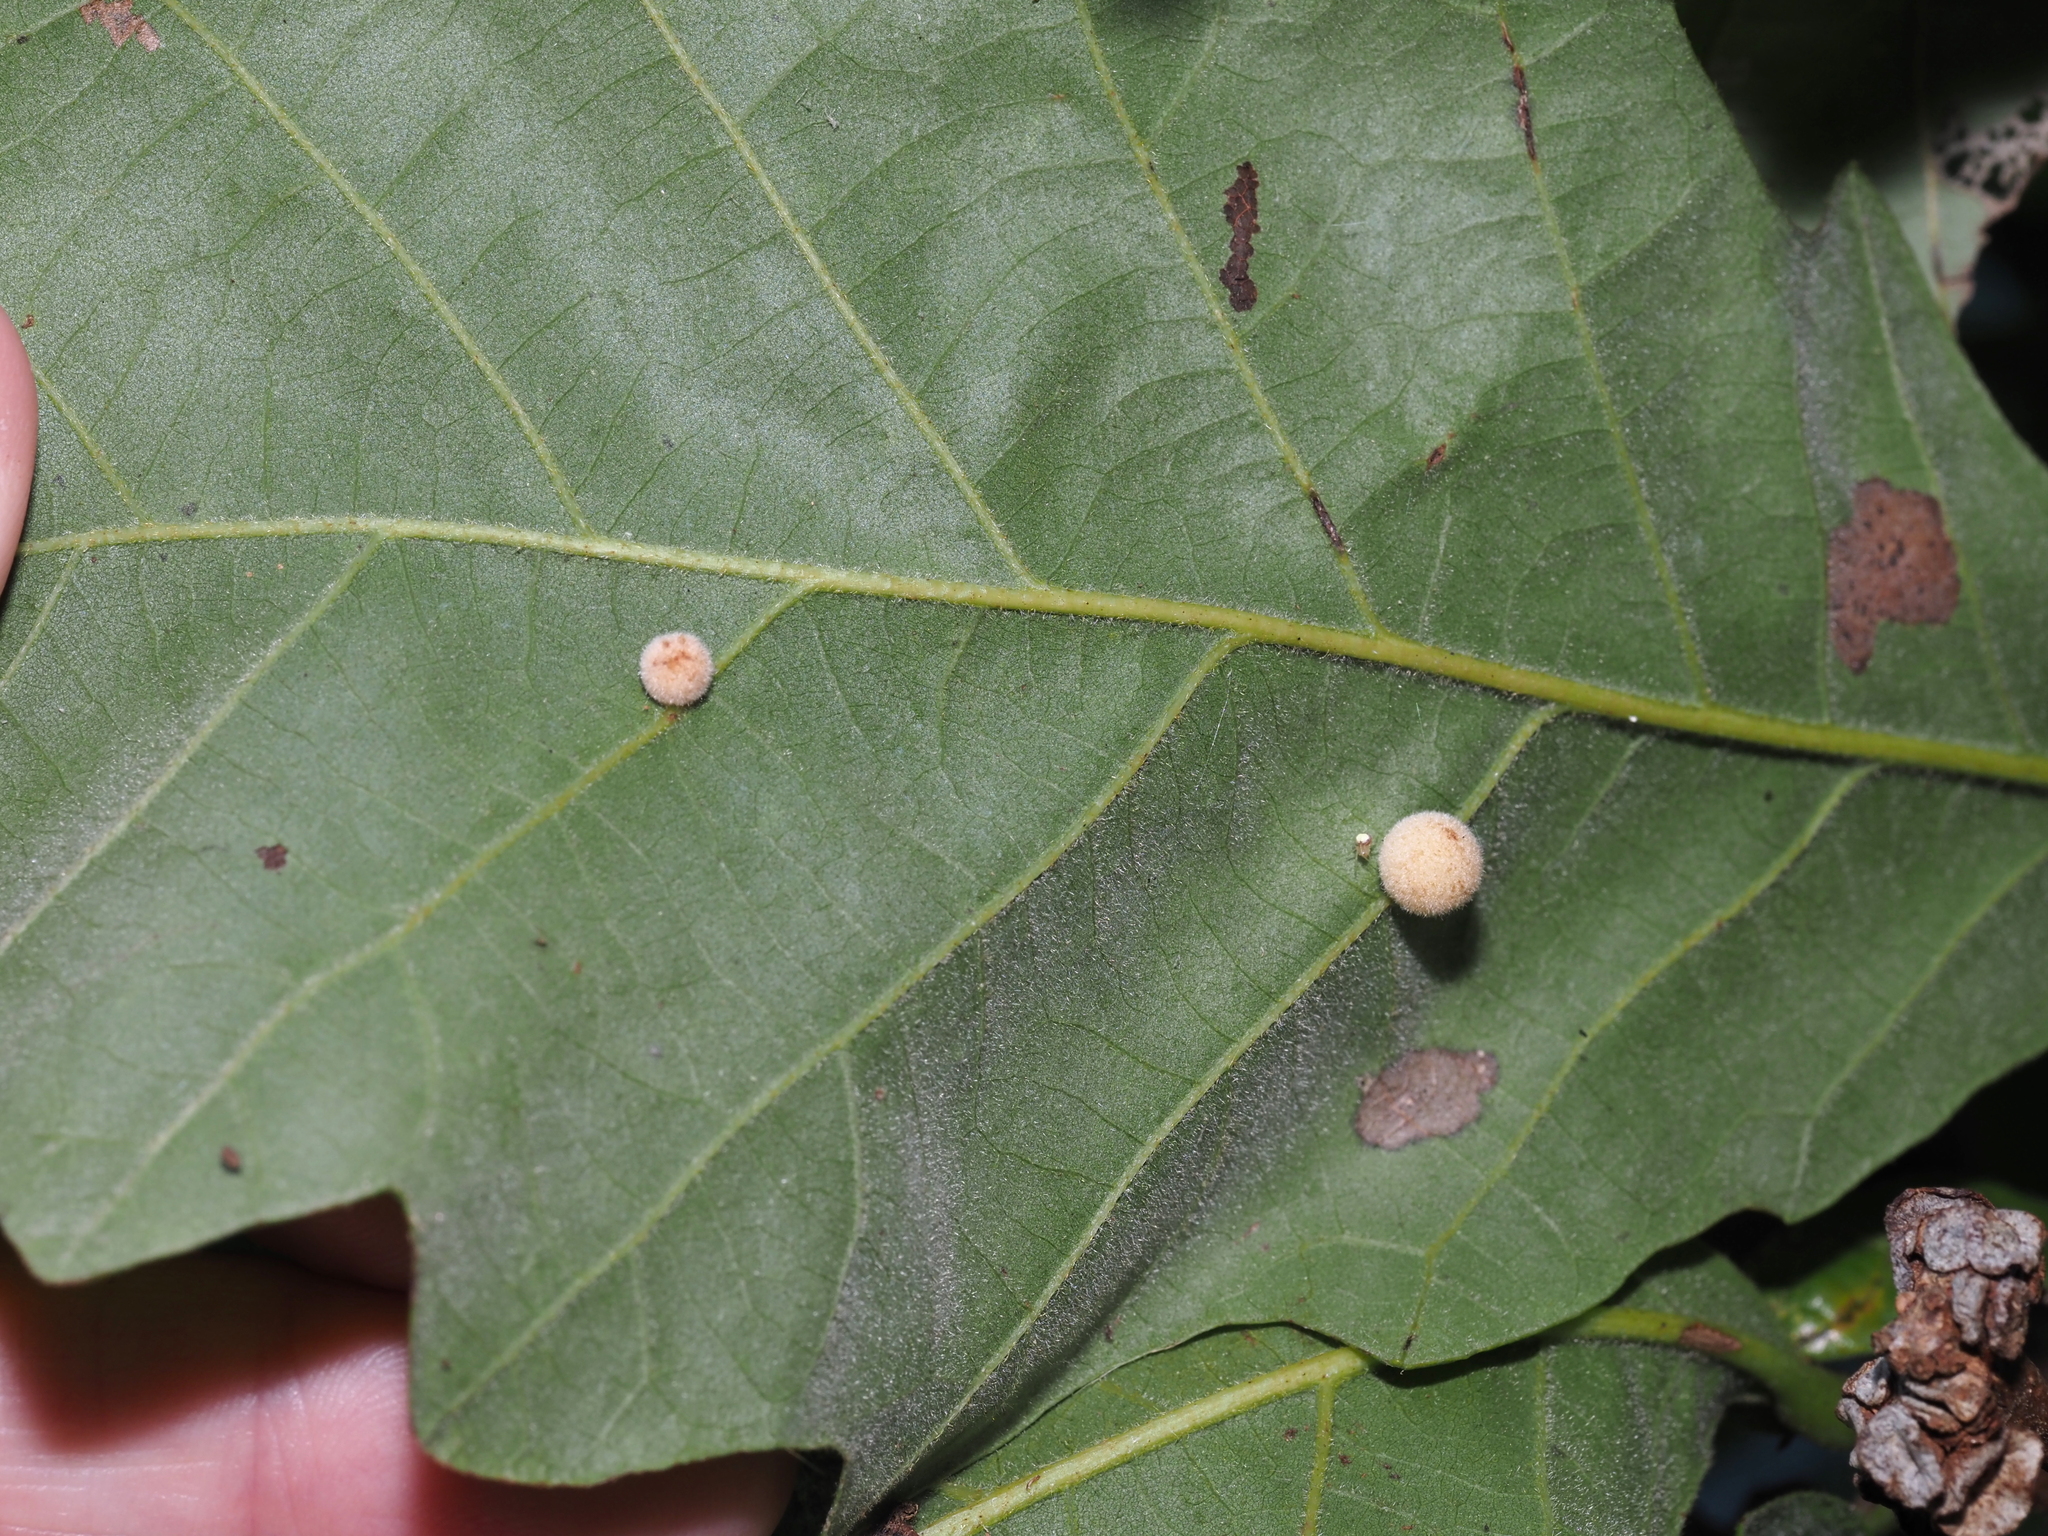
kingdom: Animalia
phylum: Arthropoda
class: Insecta
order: Hymenoptera
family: Cynipidae
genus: Philonix
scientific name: Philonix fulvicollis
